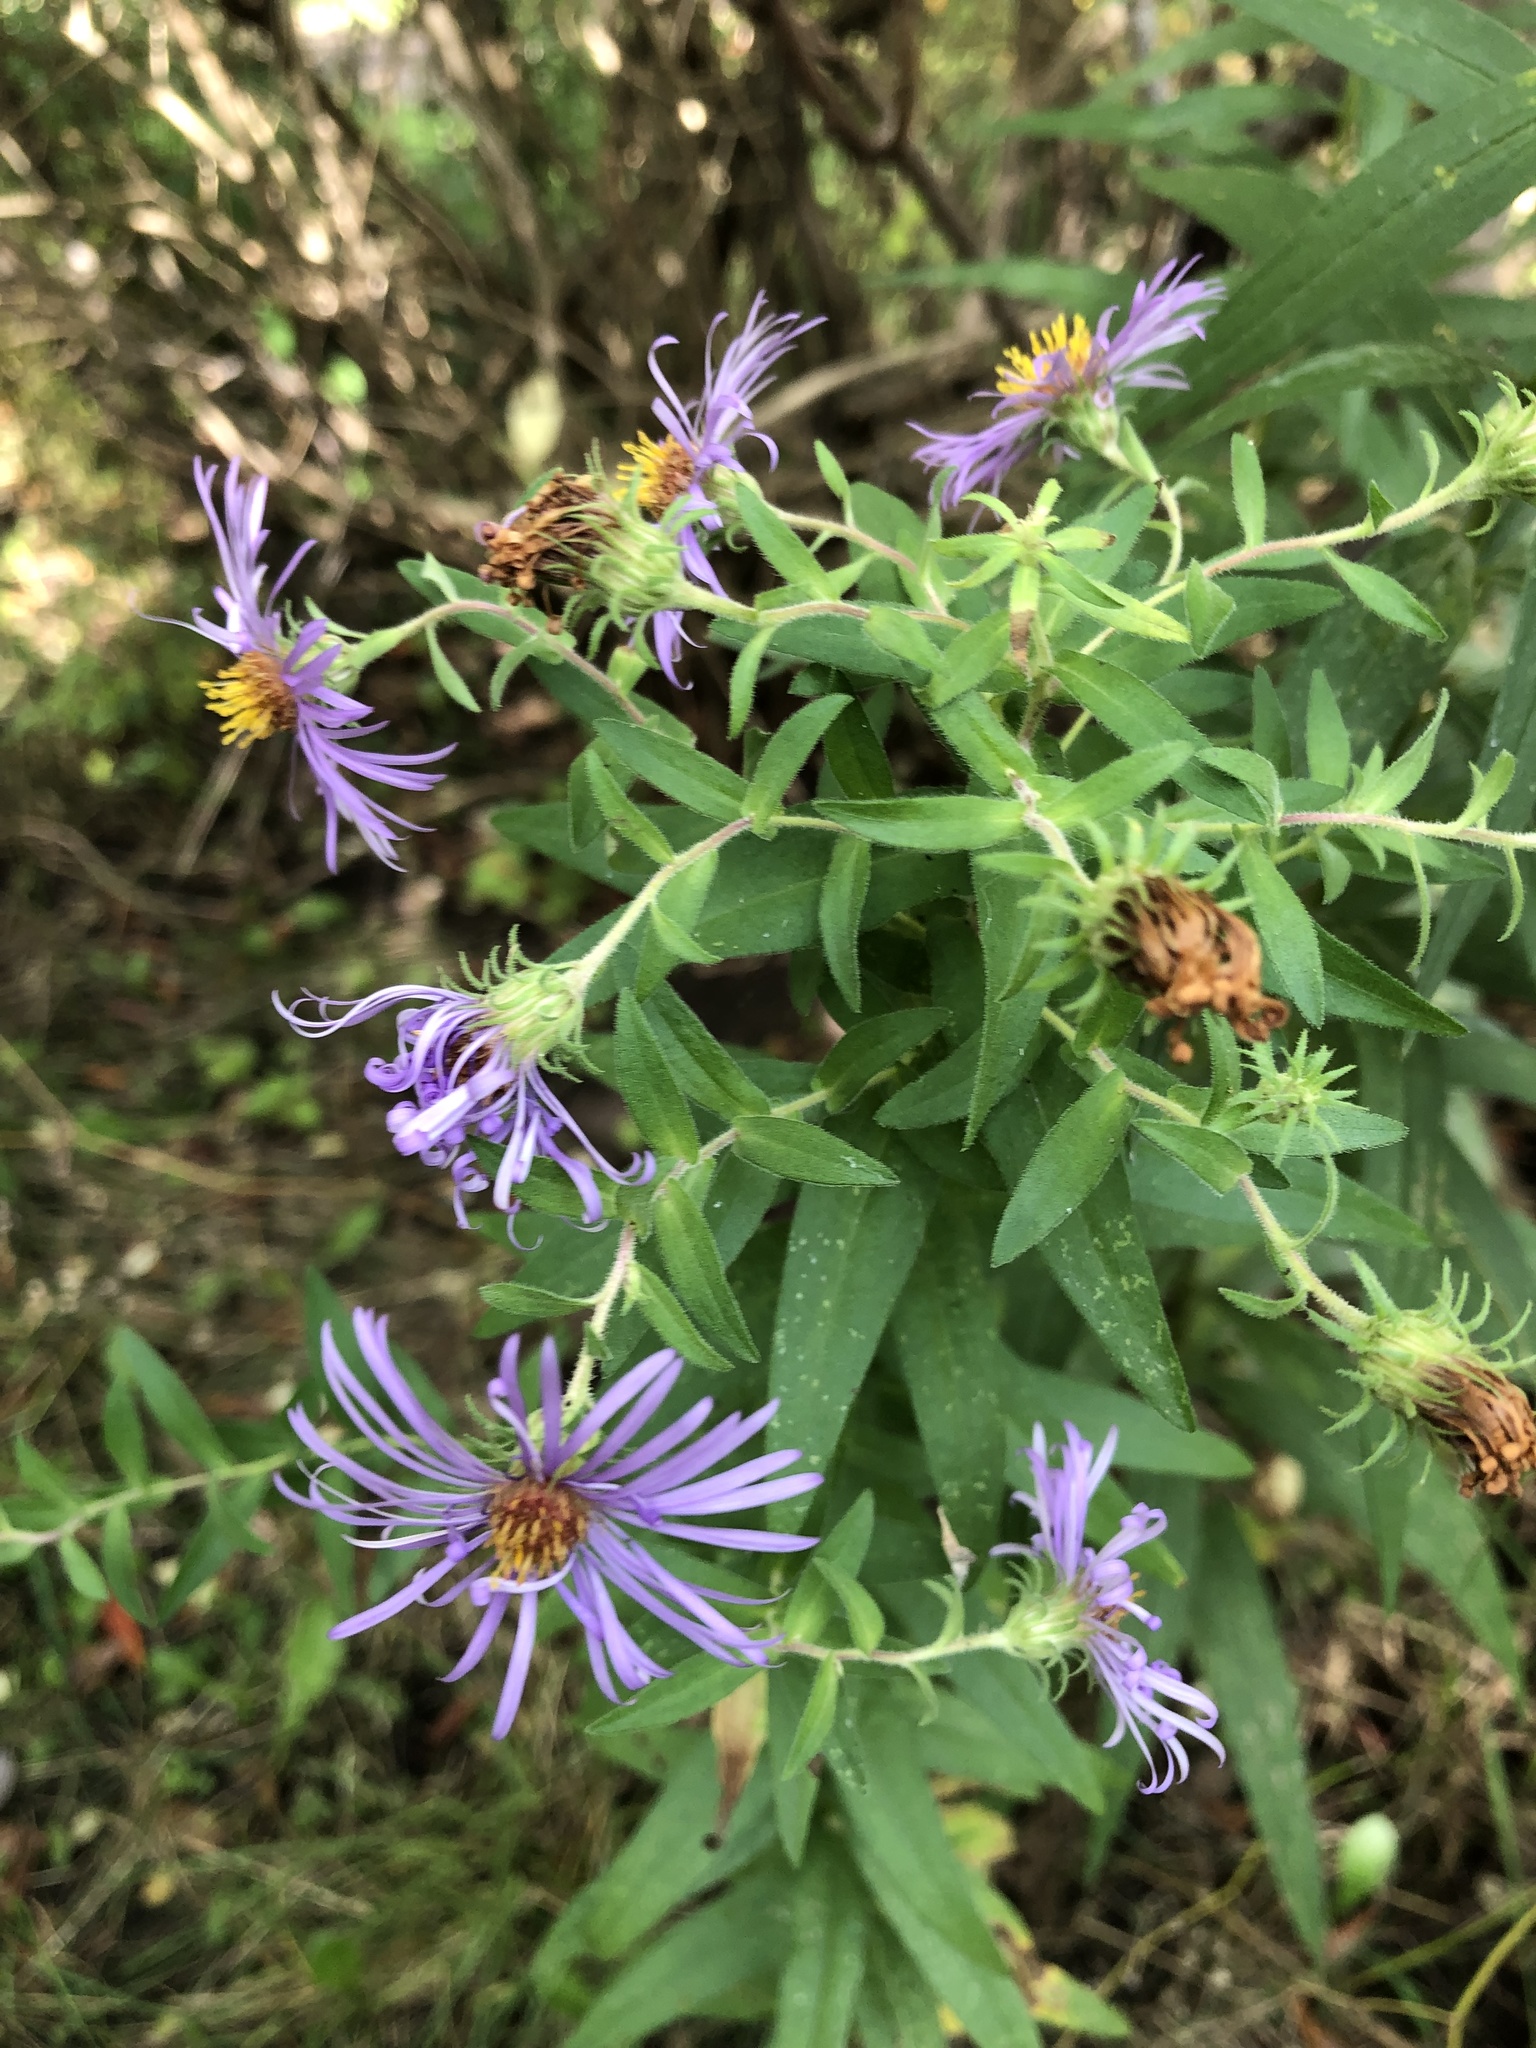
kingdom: Plantae
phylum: Tracheophyta
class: Magnoliopsida
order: Asterales
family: Asteraceae
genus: Symphyotrichum
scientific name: Symphyotrichum novae-angliae
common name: Michaelmas daisy
